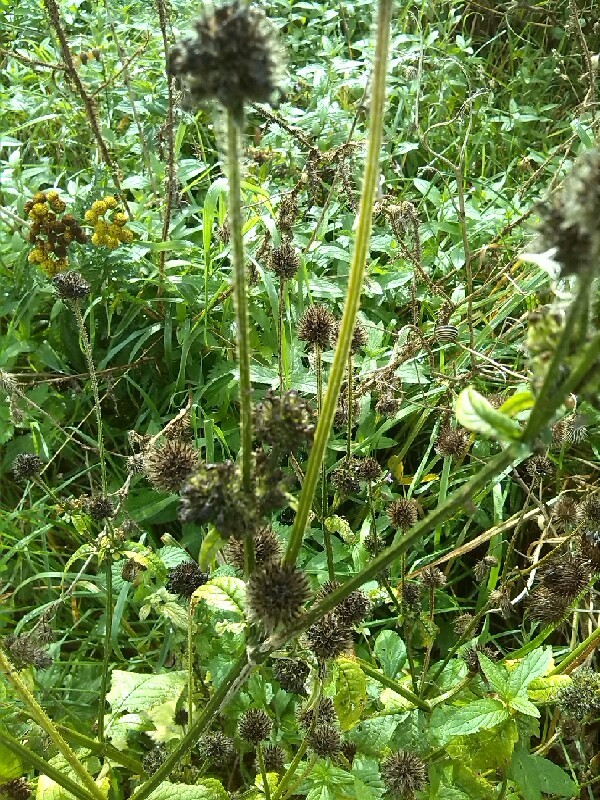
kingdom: Plantae
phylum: Tracheophyta
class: Magnoliopsida
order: Dipsacales
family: Caprifoliaceae
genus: Dipsacus
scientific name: Dipsacus pilosus
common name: Small teasel
